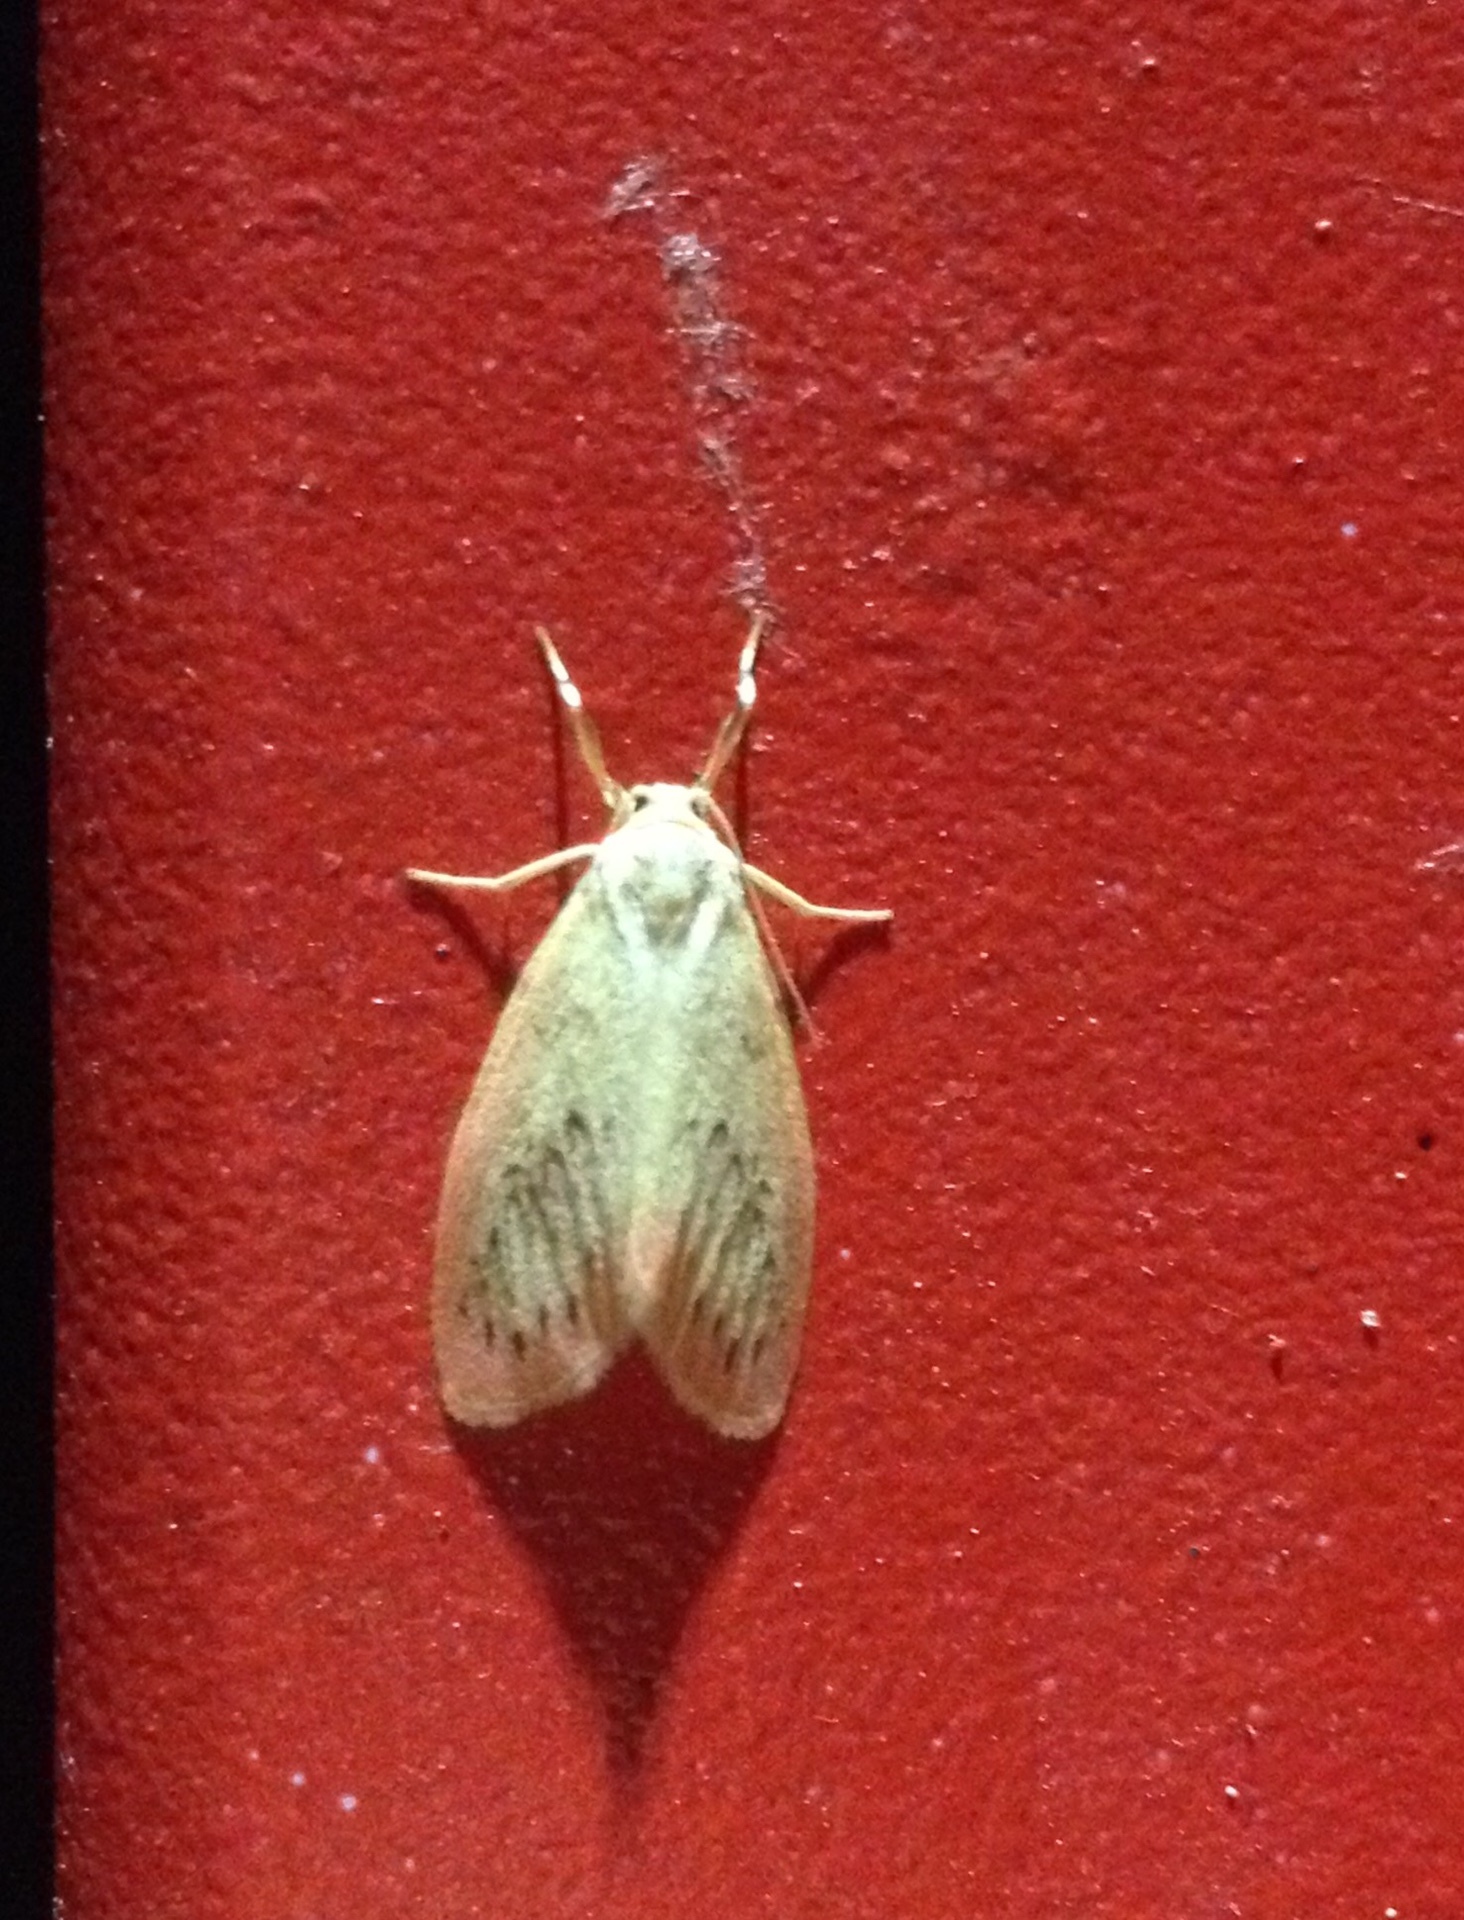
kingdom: Animalia
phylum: Arthropoda
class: Insecta
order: Lepidoptera
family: Erebidae
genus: Miltochrista
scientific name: Miltochrista miniata
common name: Rosy footman
